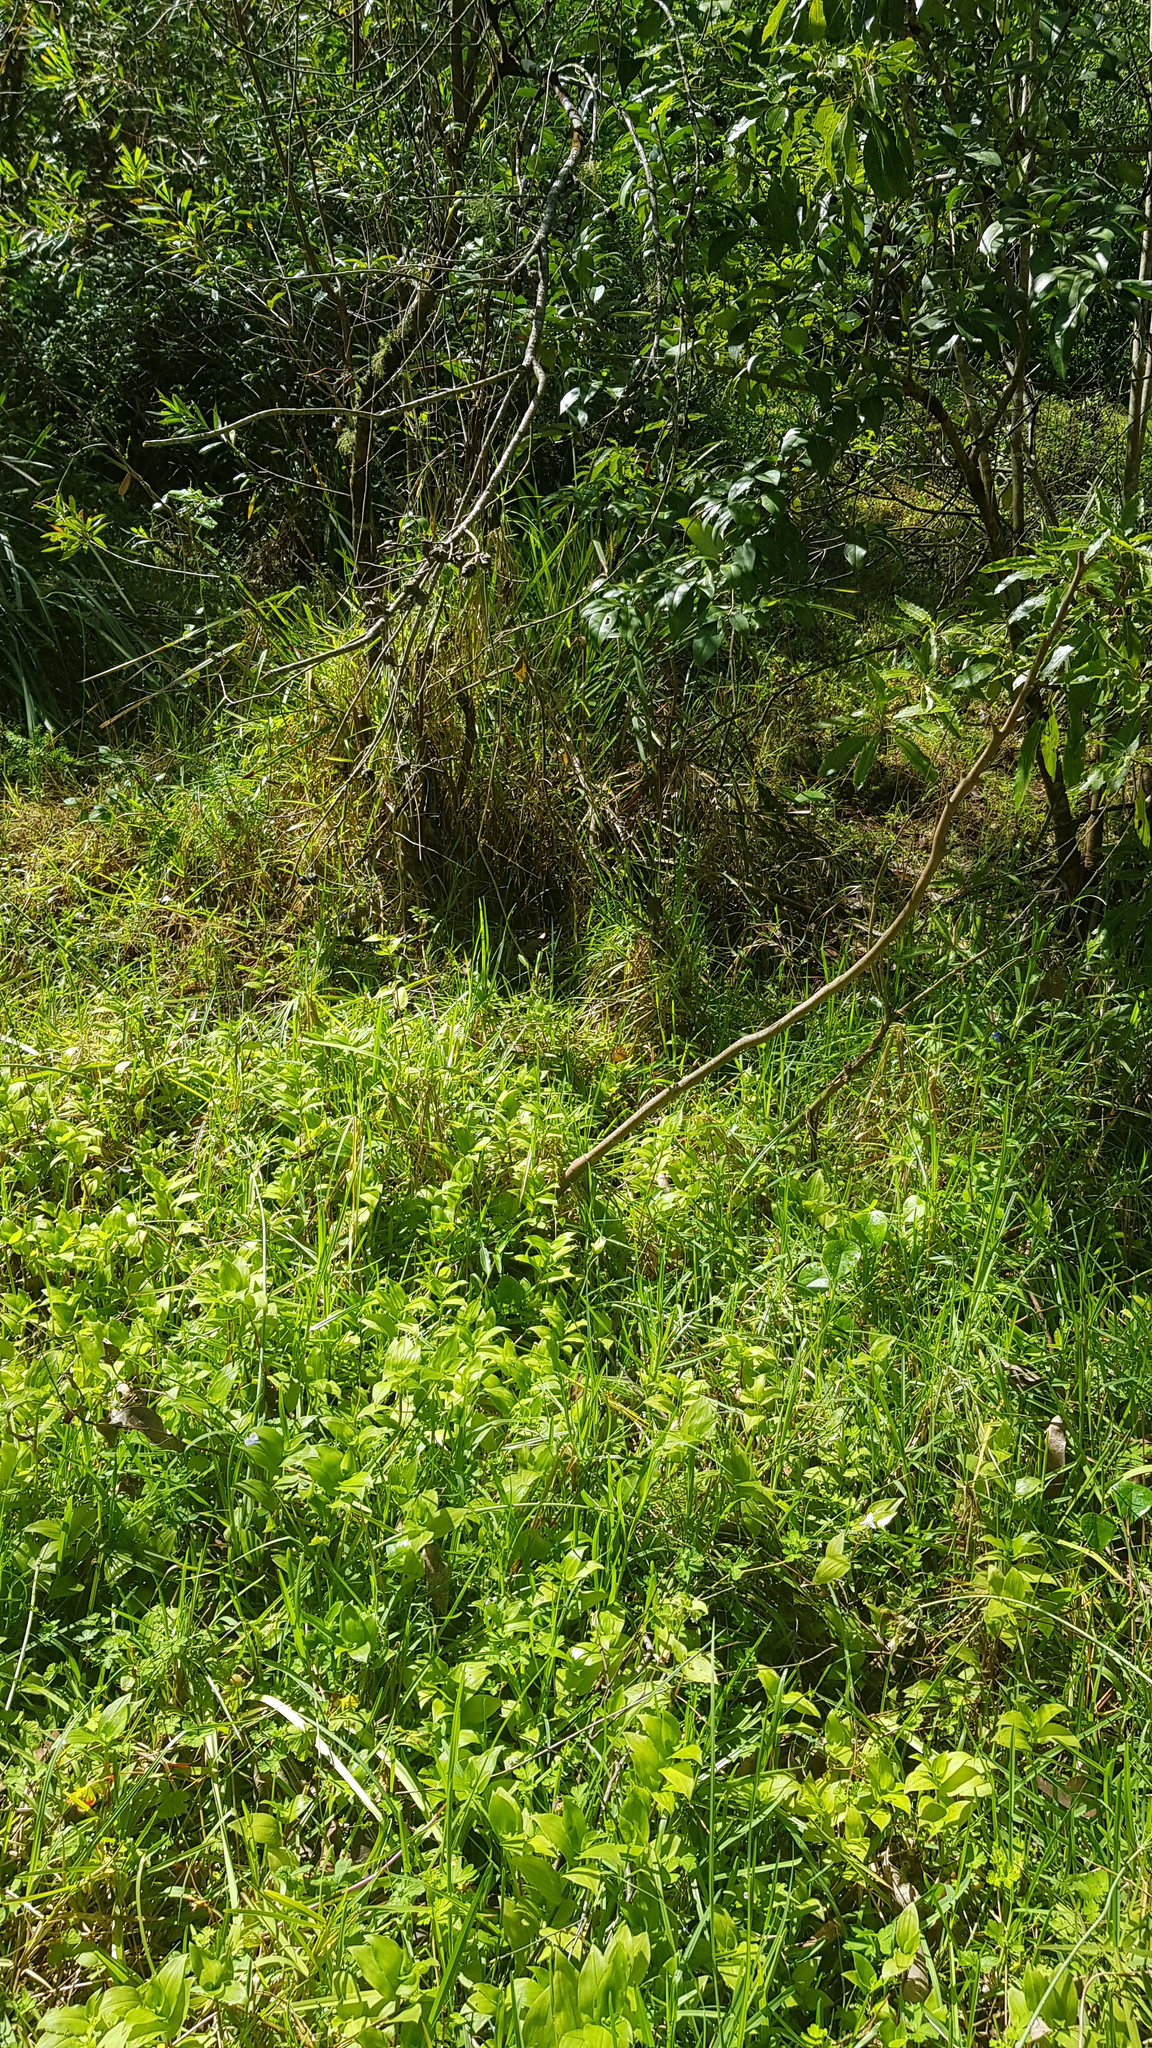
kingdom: Animalia
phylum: Arthropoda
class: Insecta
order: Lepidoptera
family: Nymphalidae
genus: Heteronympha
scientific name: Heteronympha merope
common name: Common brown
